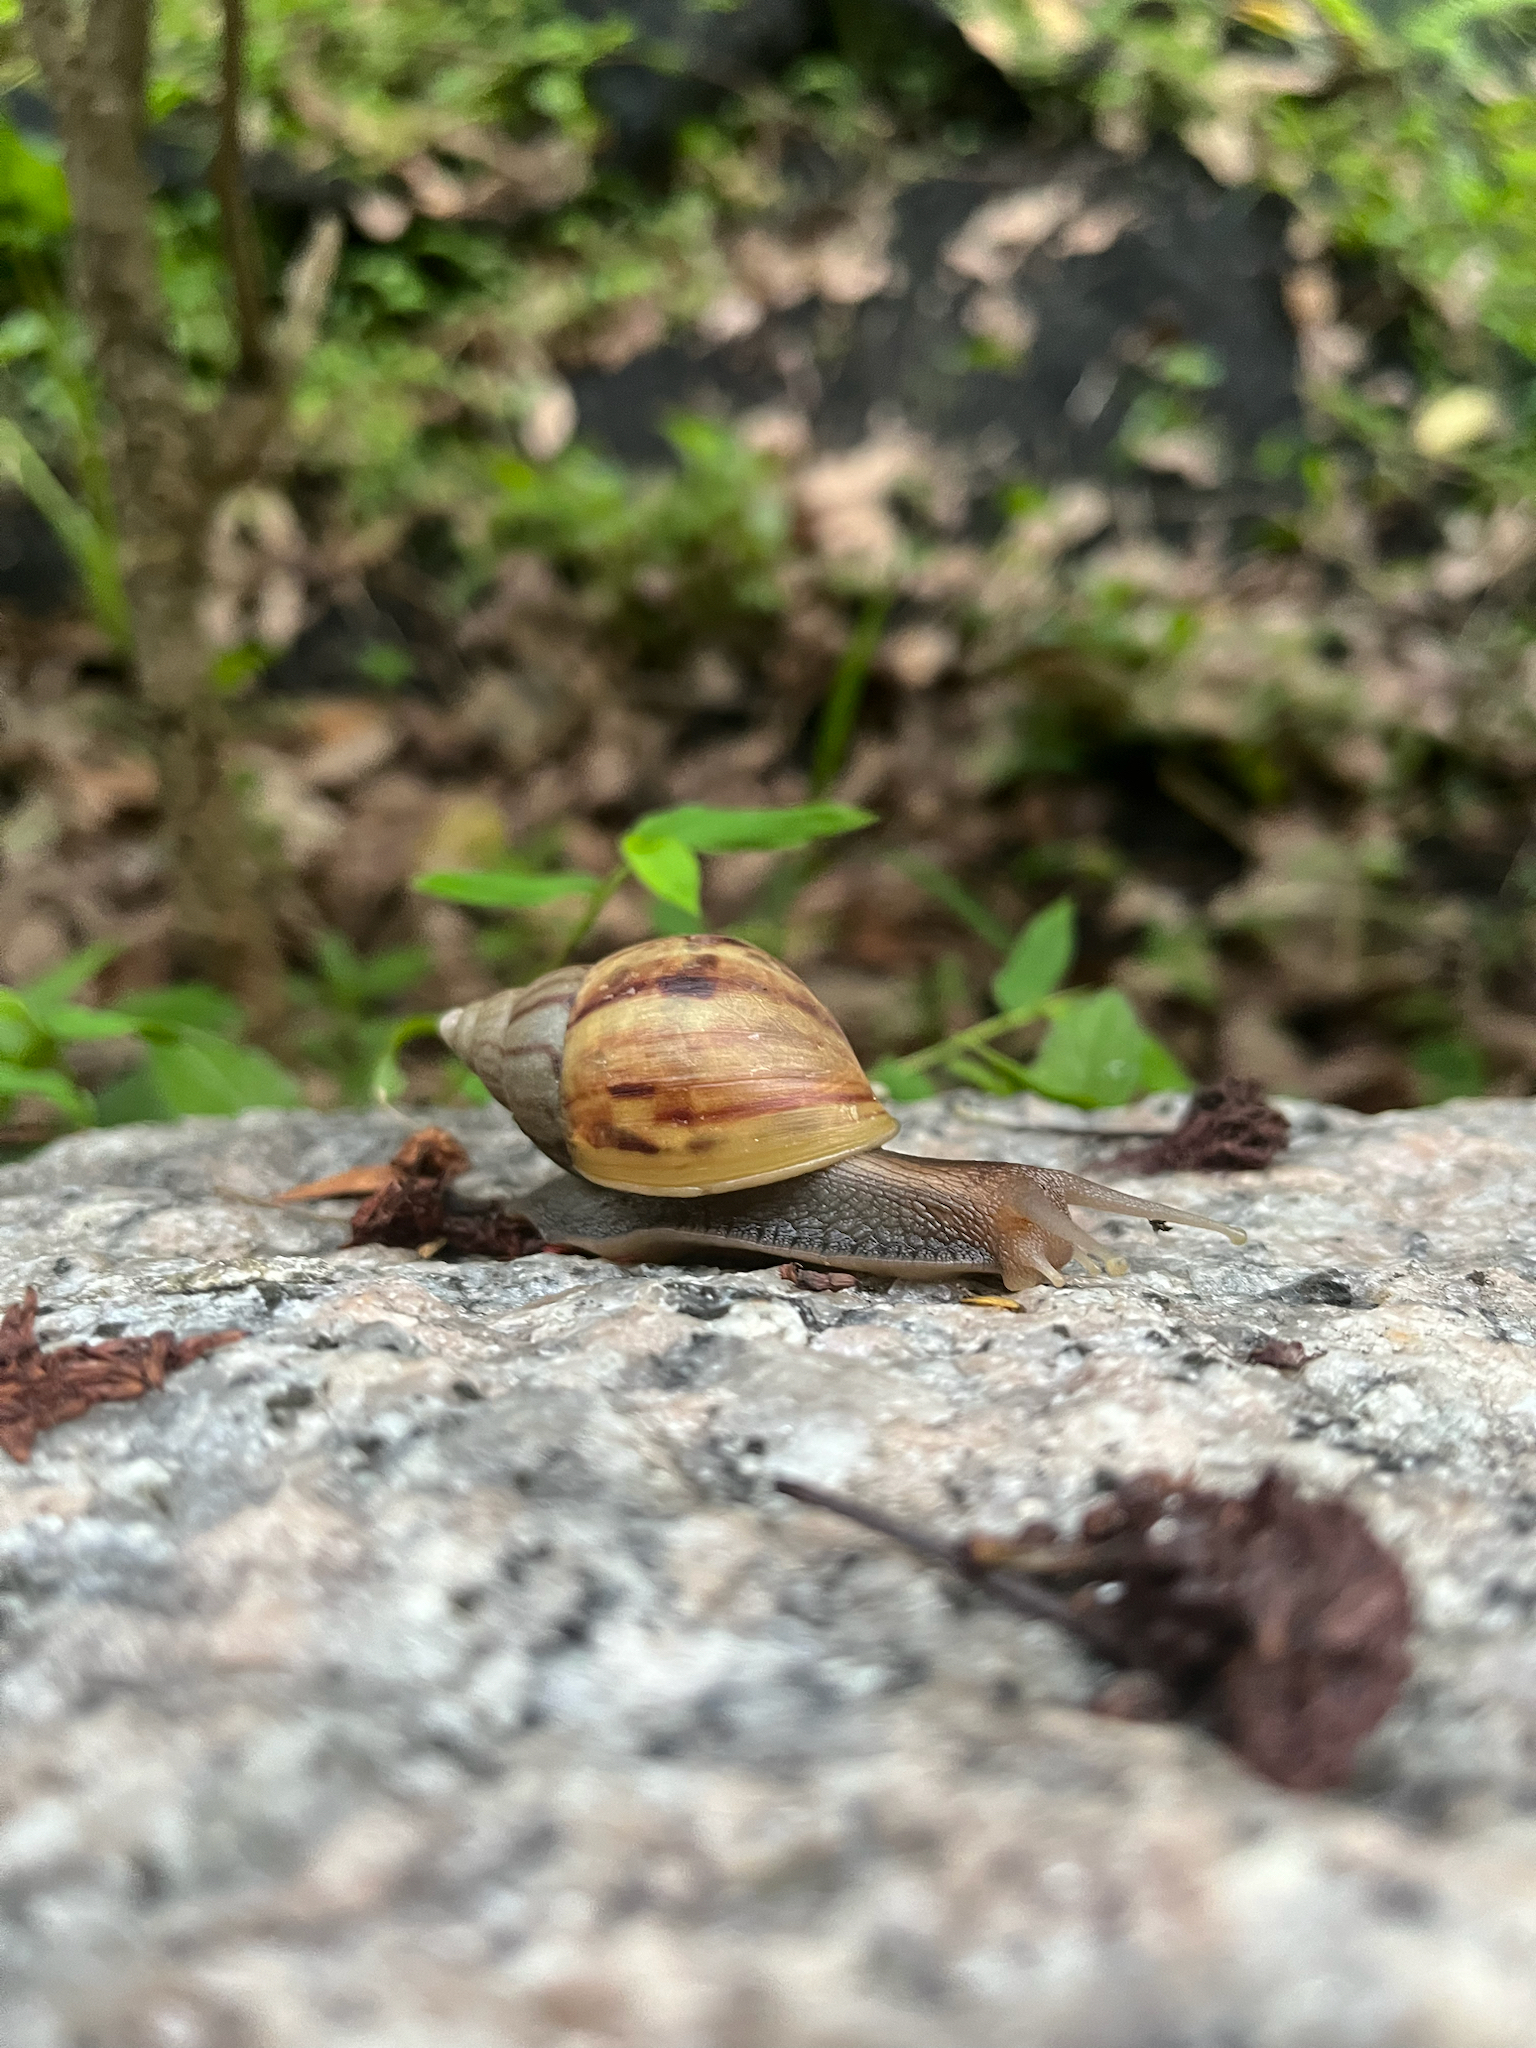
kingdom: Animalia
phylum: Mollusca
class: Gastropoda
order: Stylommatophora
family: Achatinidae
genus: Lissachatina
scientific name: Lissachatina fulica
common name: Giant african snail
